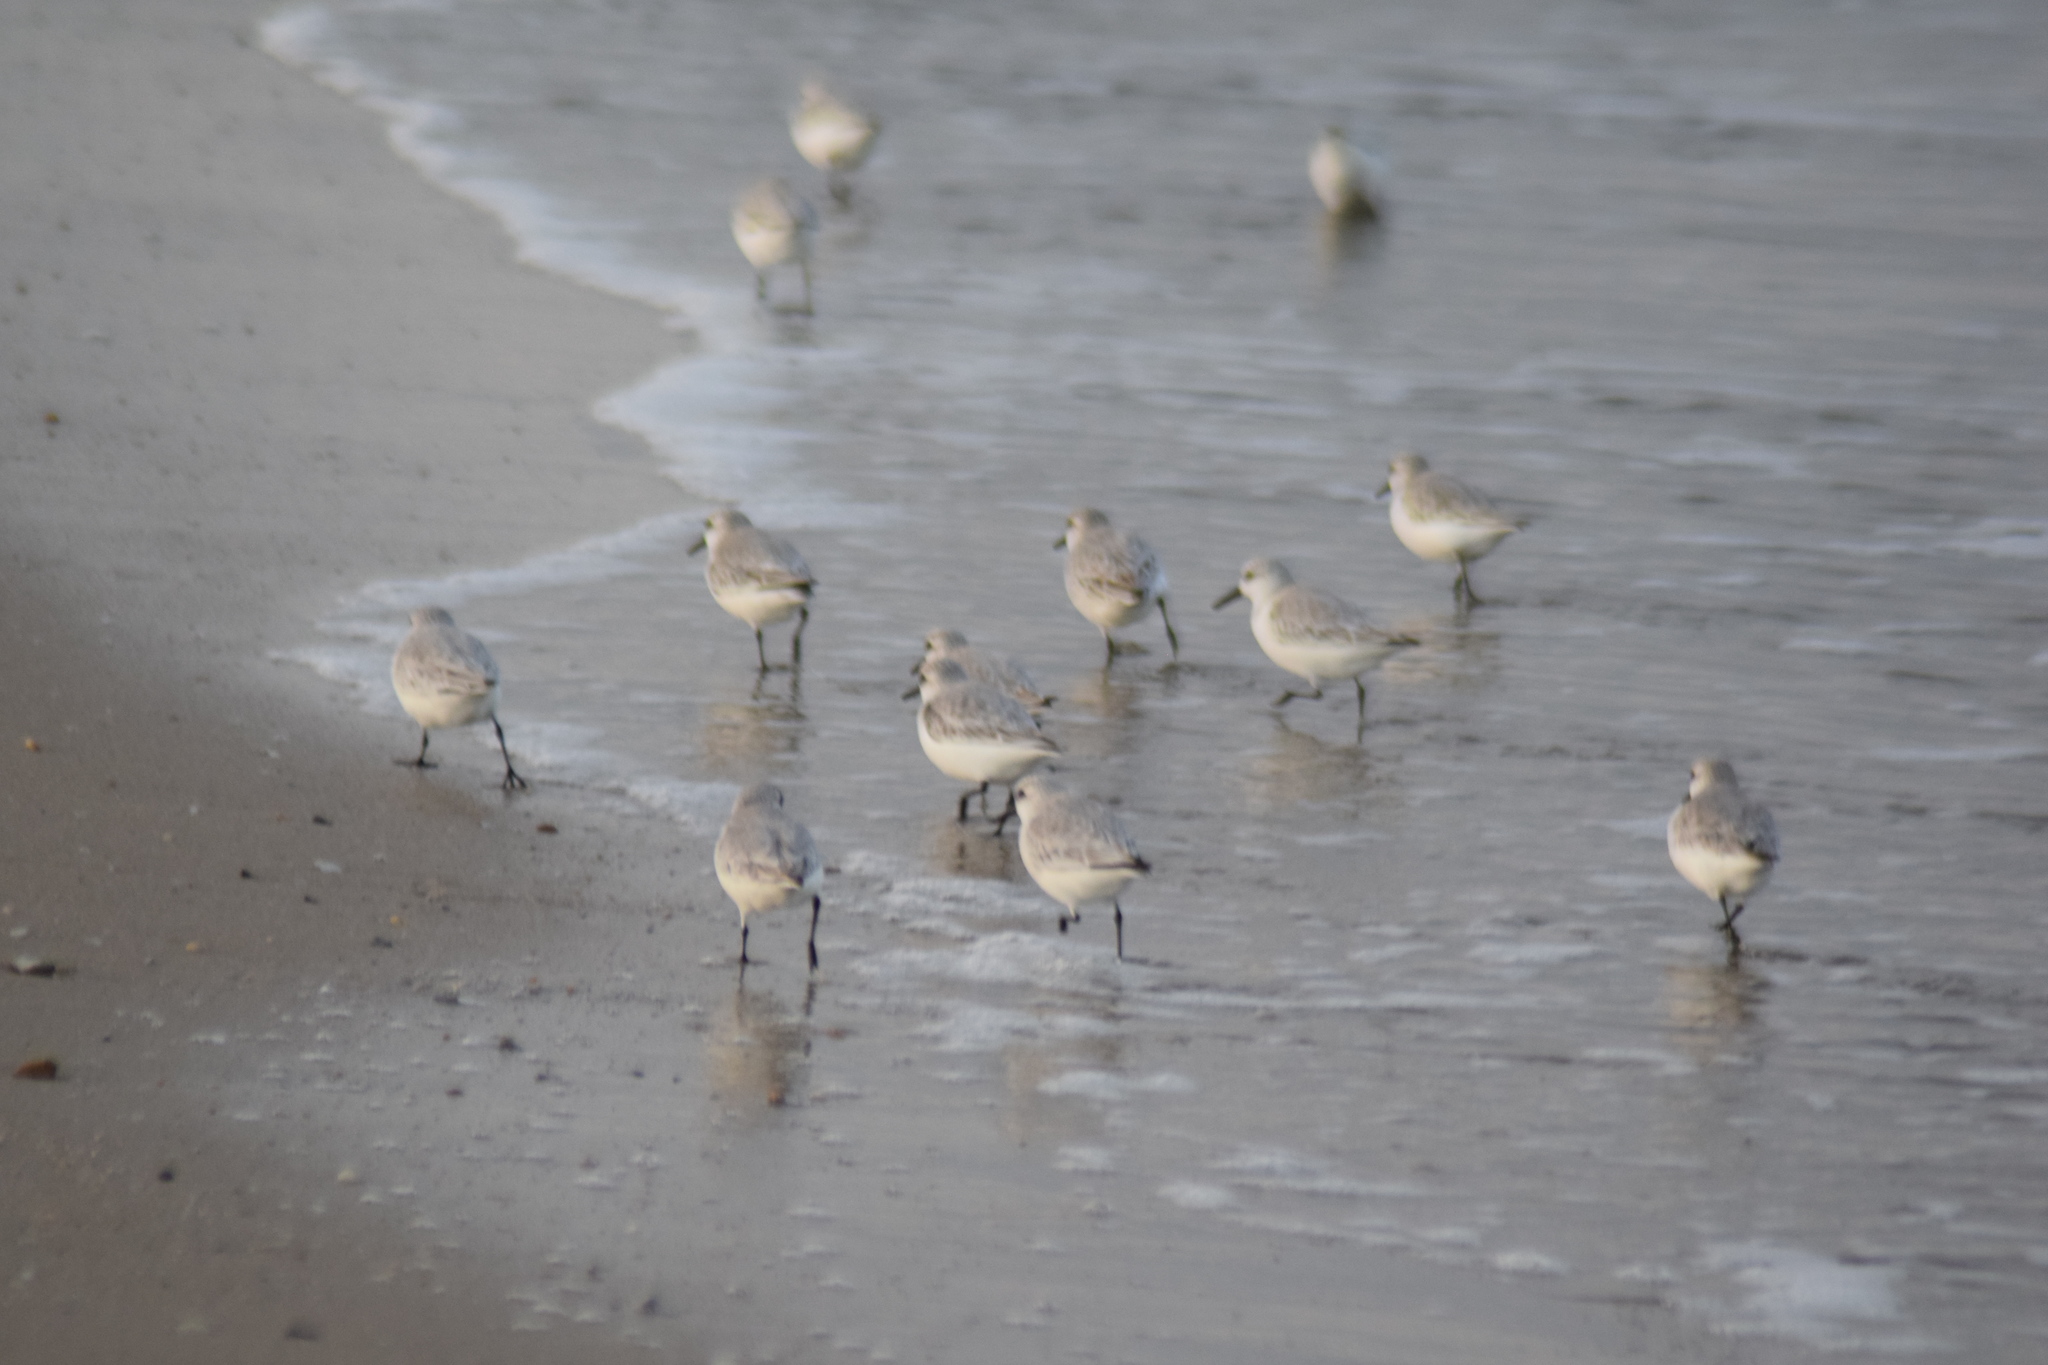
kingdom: Animalia
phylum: Chordata
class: Aves
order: Charadriiformes
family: Scolopacidae
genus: Calidris
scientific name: Calidris alba
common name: Sanderling
